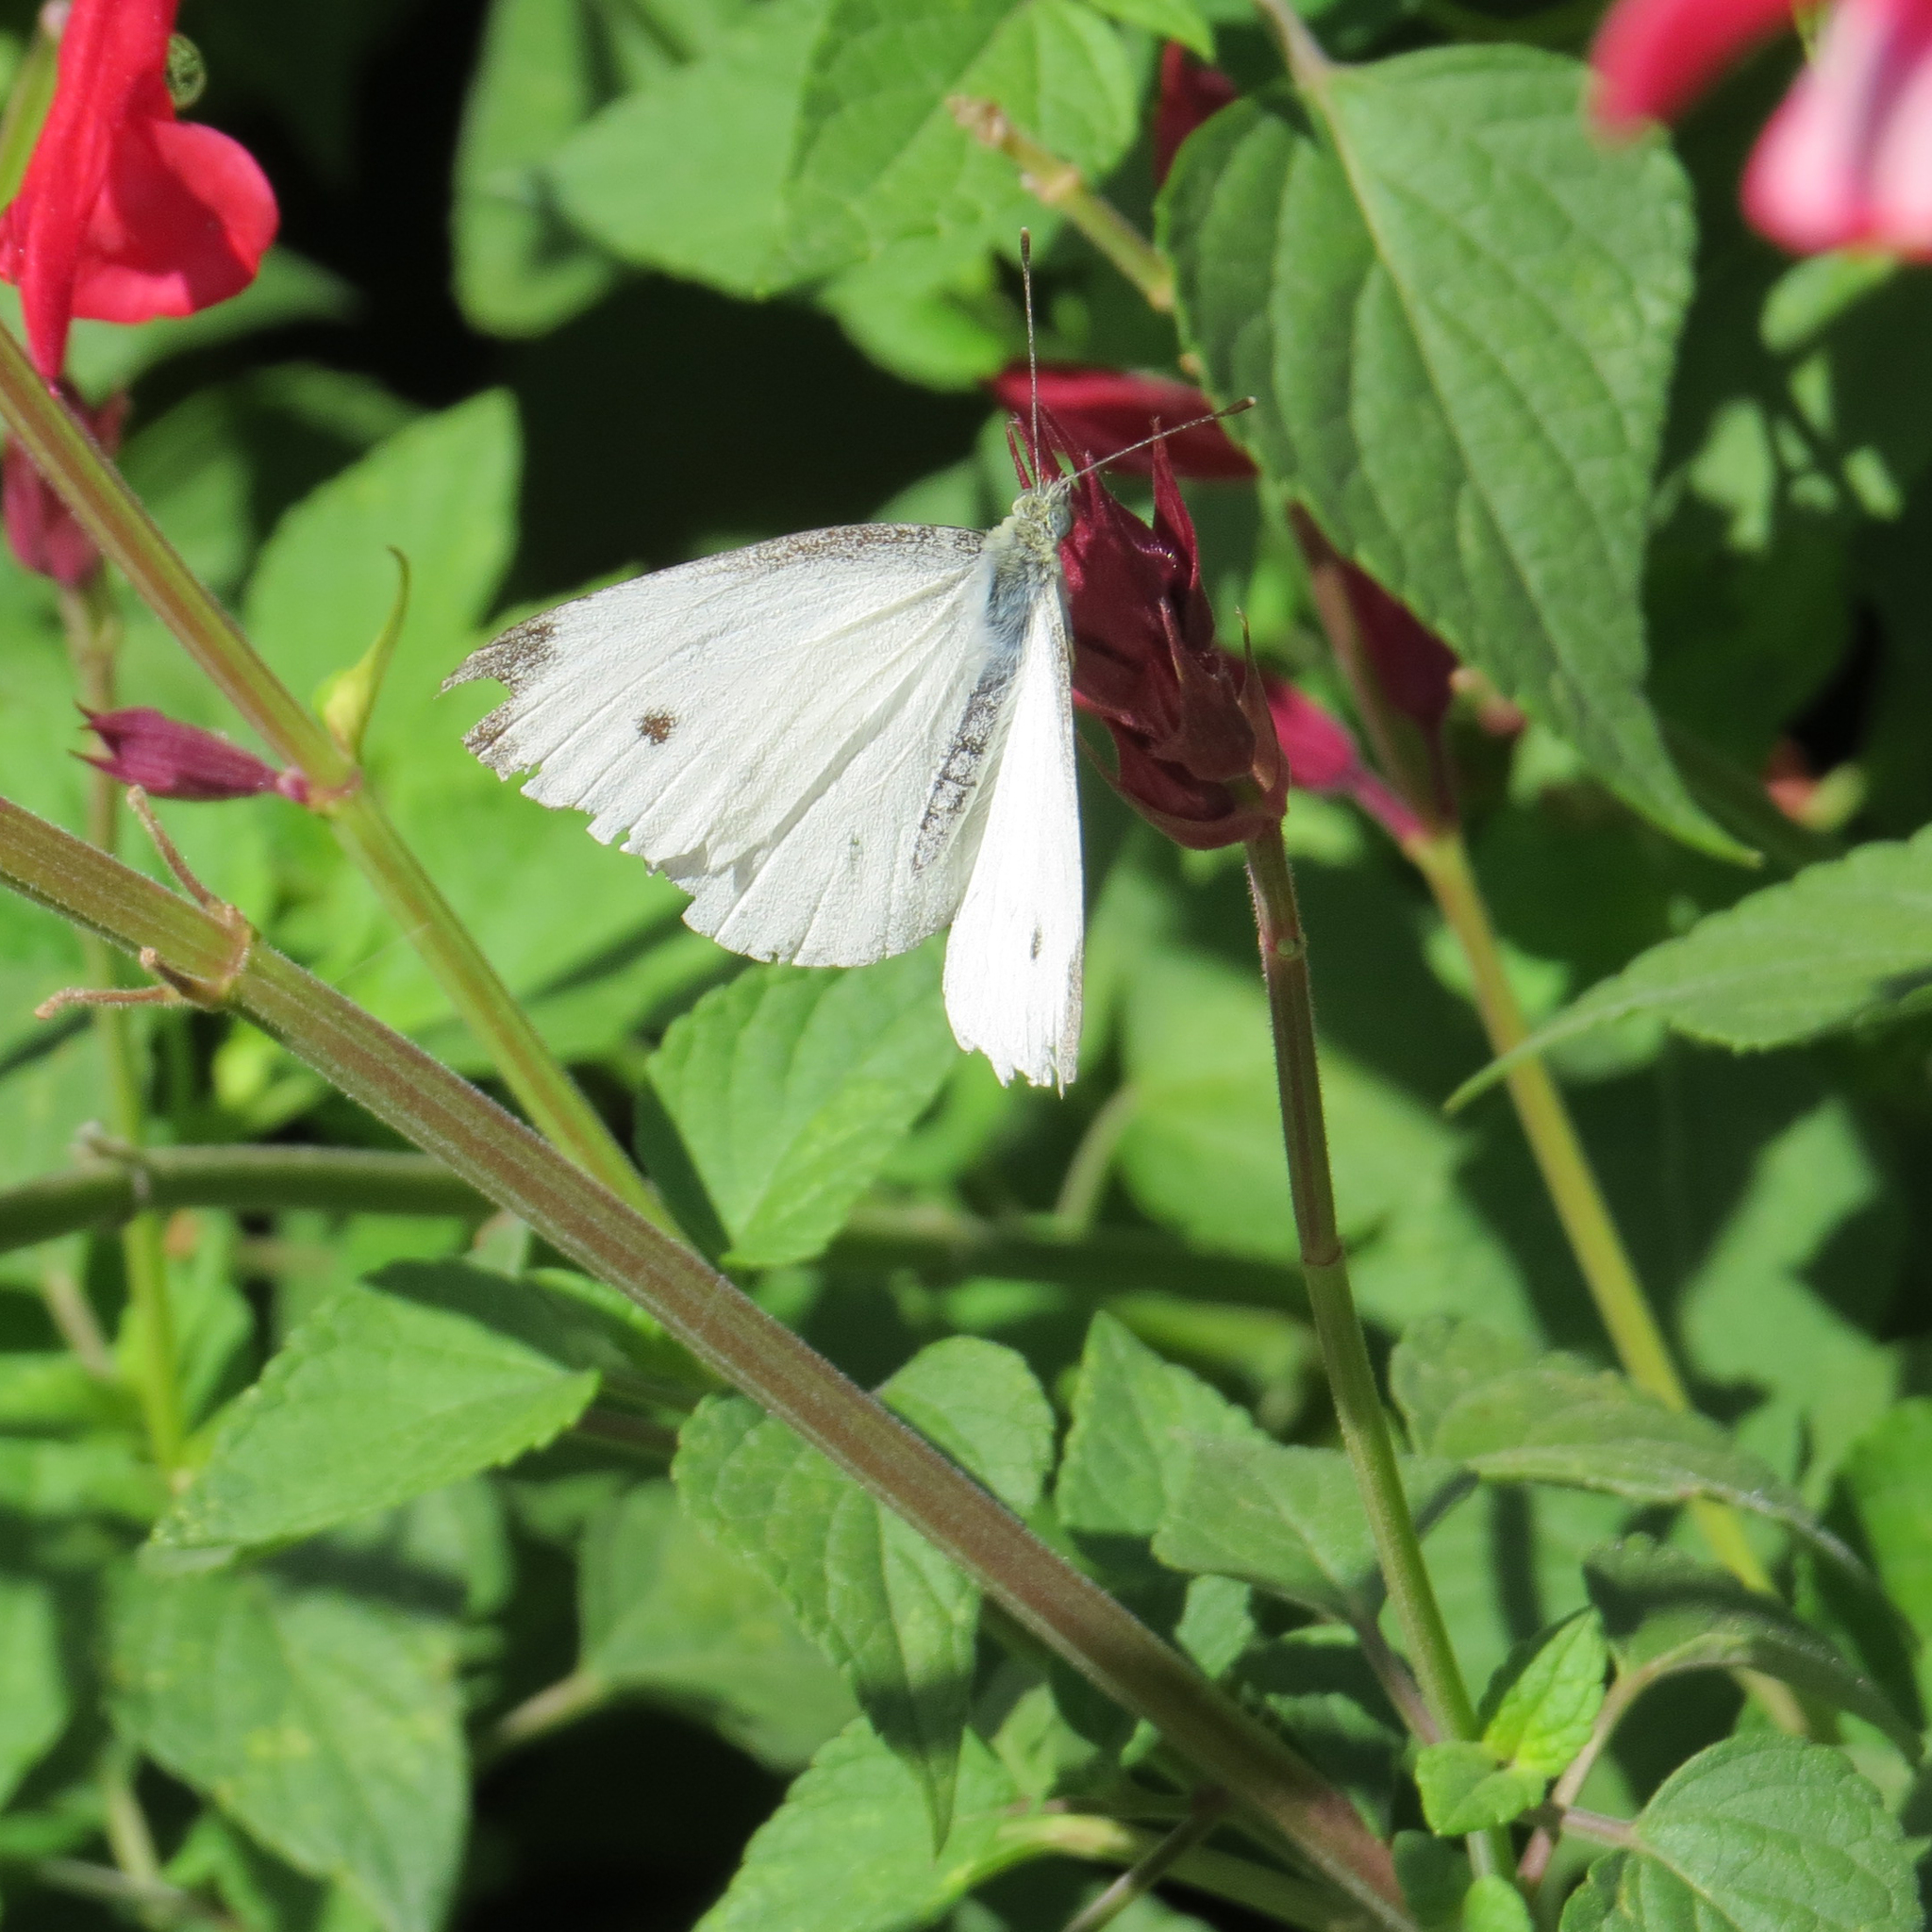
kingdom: Animalia
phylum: Arthropoda
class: Insecta
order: Lepidoptera
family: Pieridae
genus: Pieris
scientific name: Pieris rapae
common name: Small white
